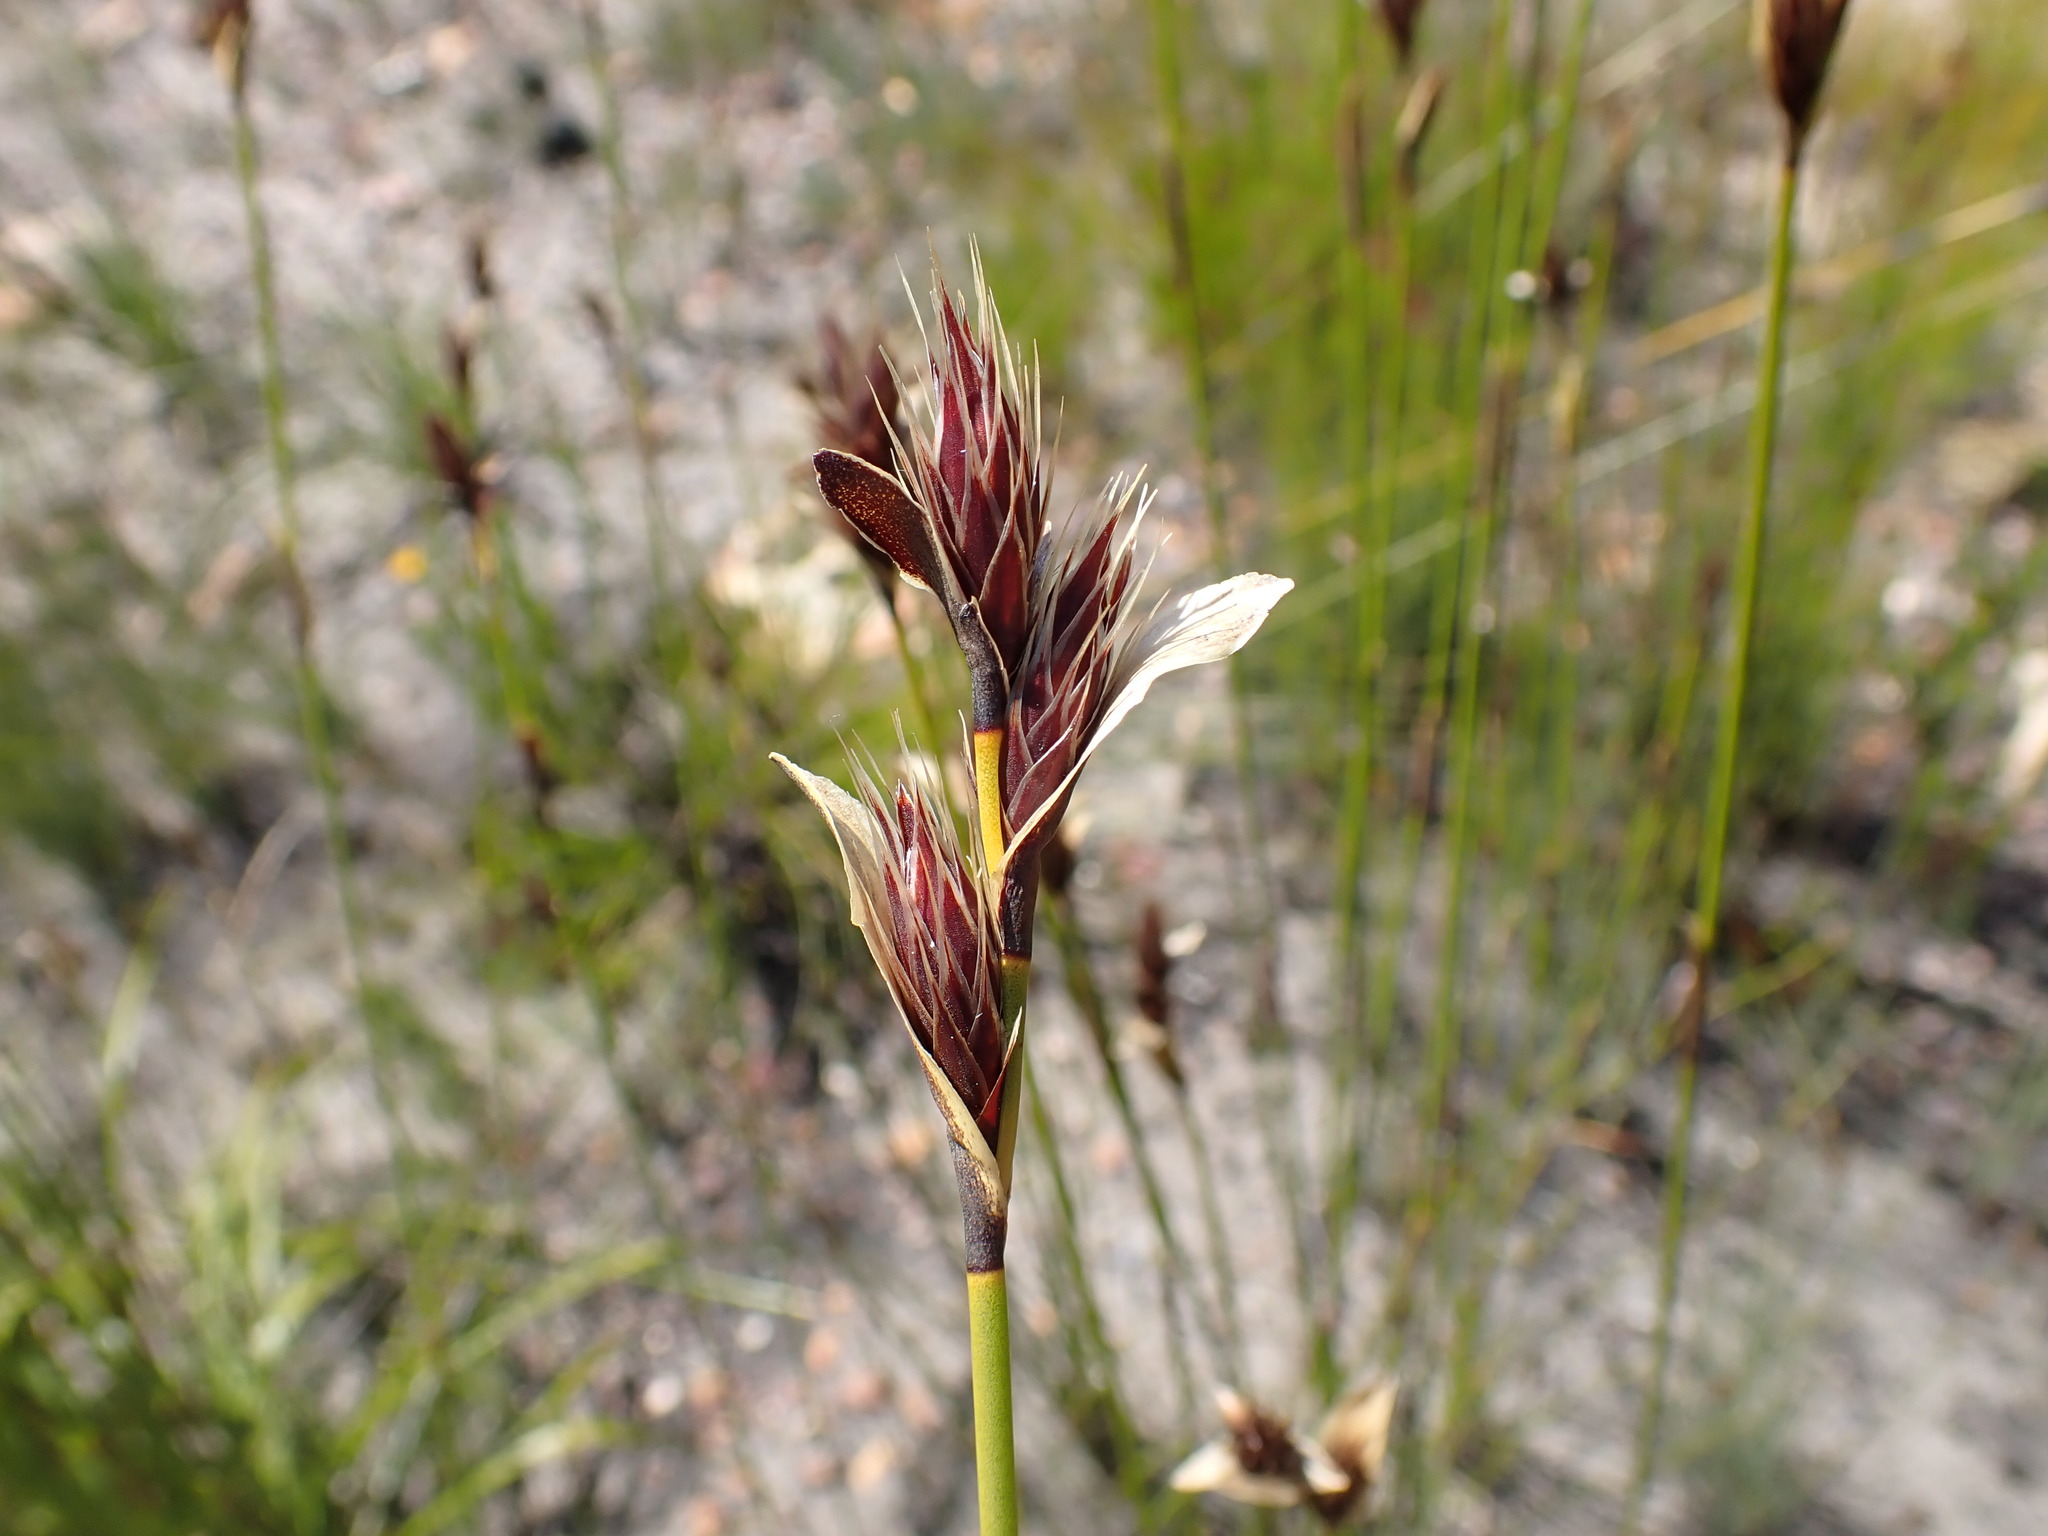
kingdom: Plantae
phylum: Tracheophyta
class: Liliopsida
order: Poales
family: Restionaceae
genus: Hypodiscus
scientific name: Hypodiscus aristatus
